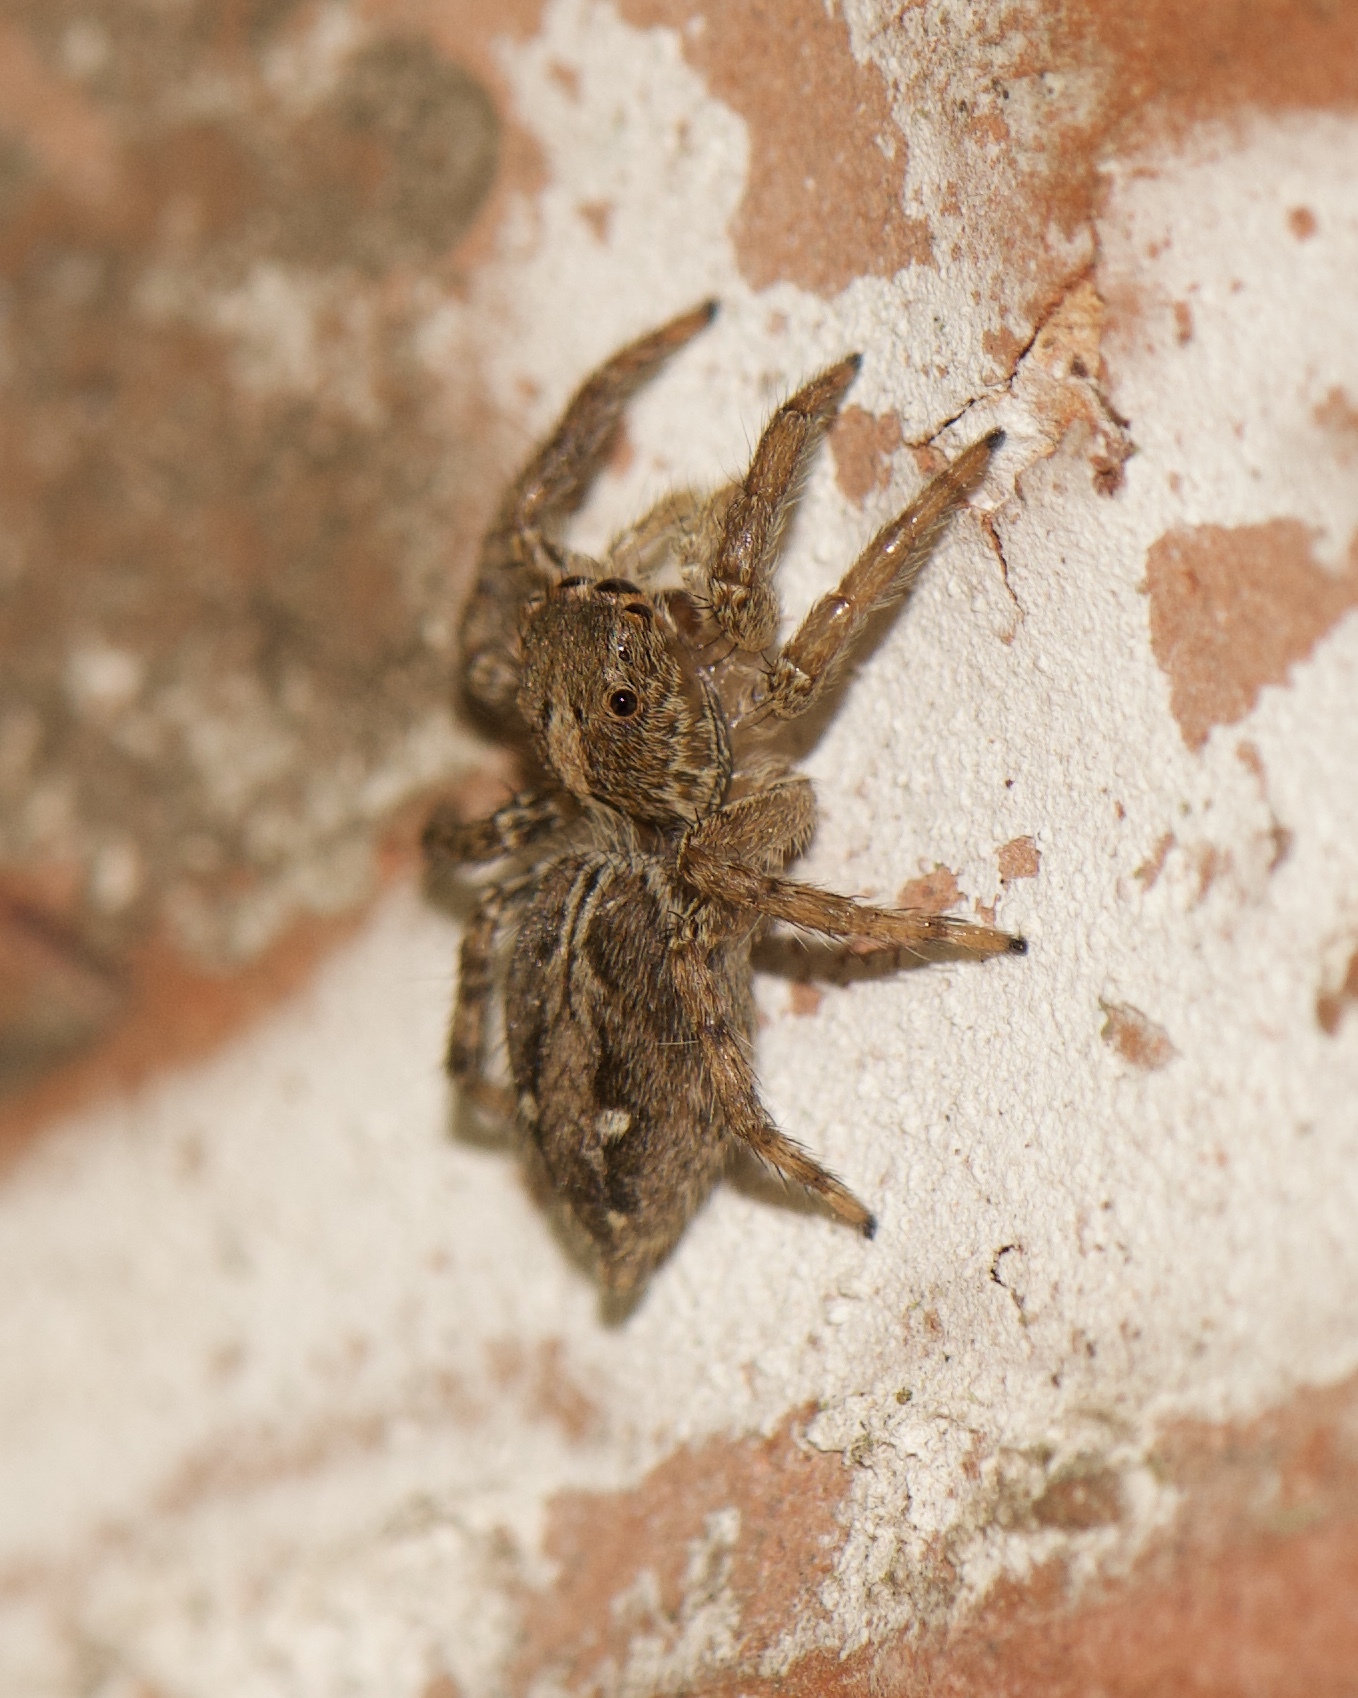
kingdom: Animalia
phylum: Arthropoda
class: Arachnida
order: Araneae
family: Salticidae
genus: Plexippus
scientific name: Plexippus paykulli
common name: Pantropical jumper
